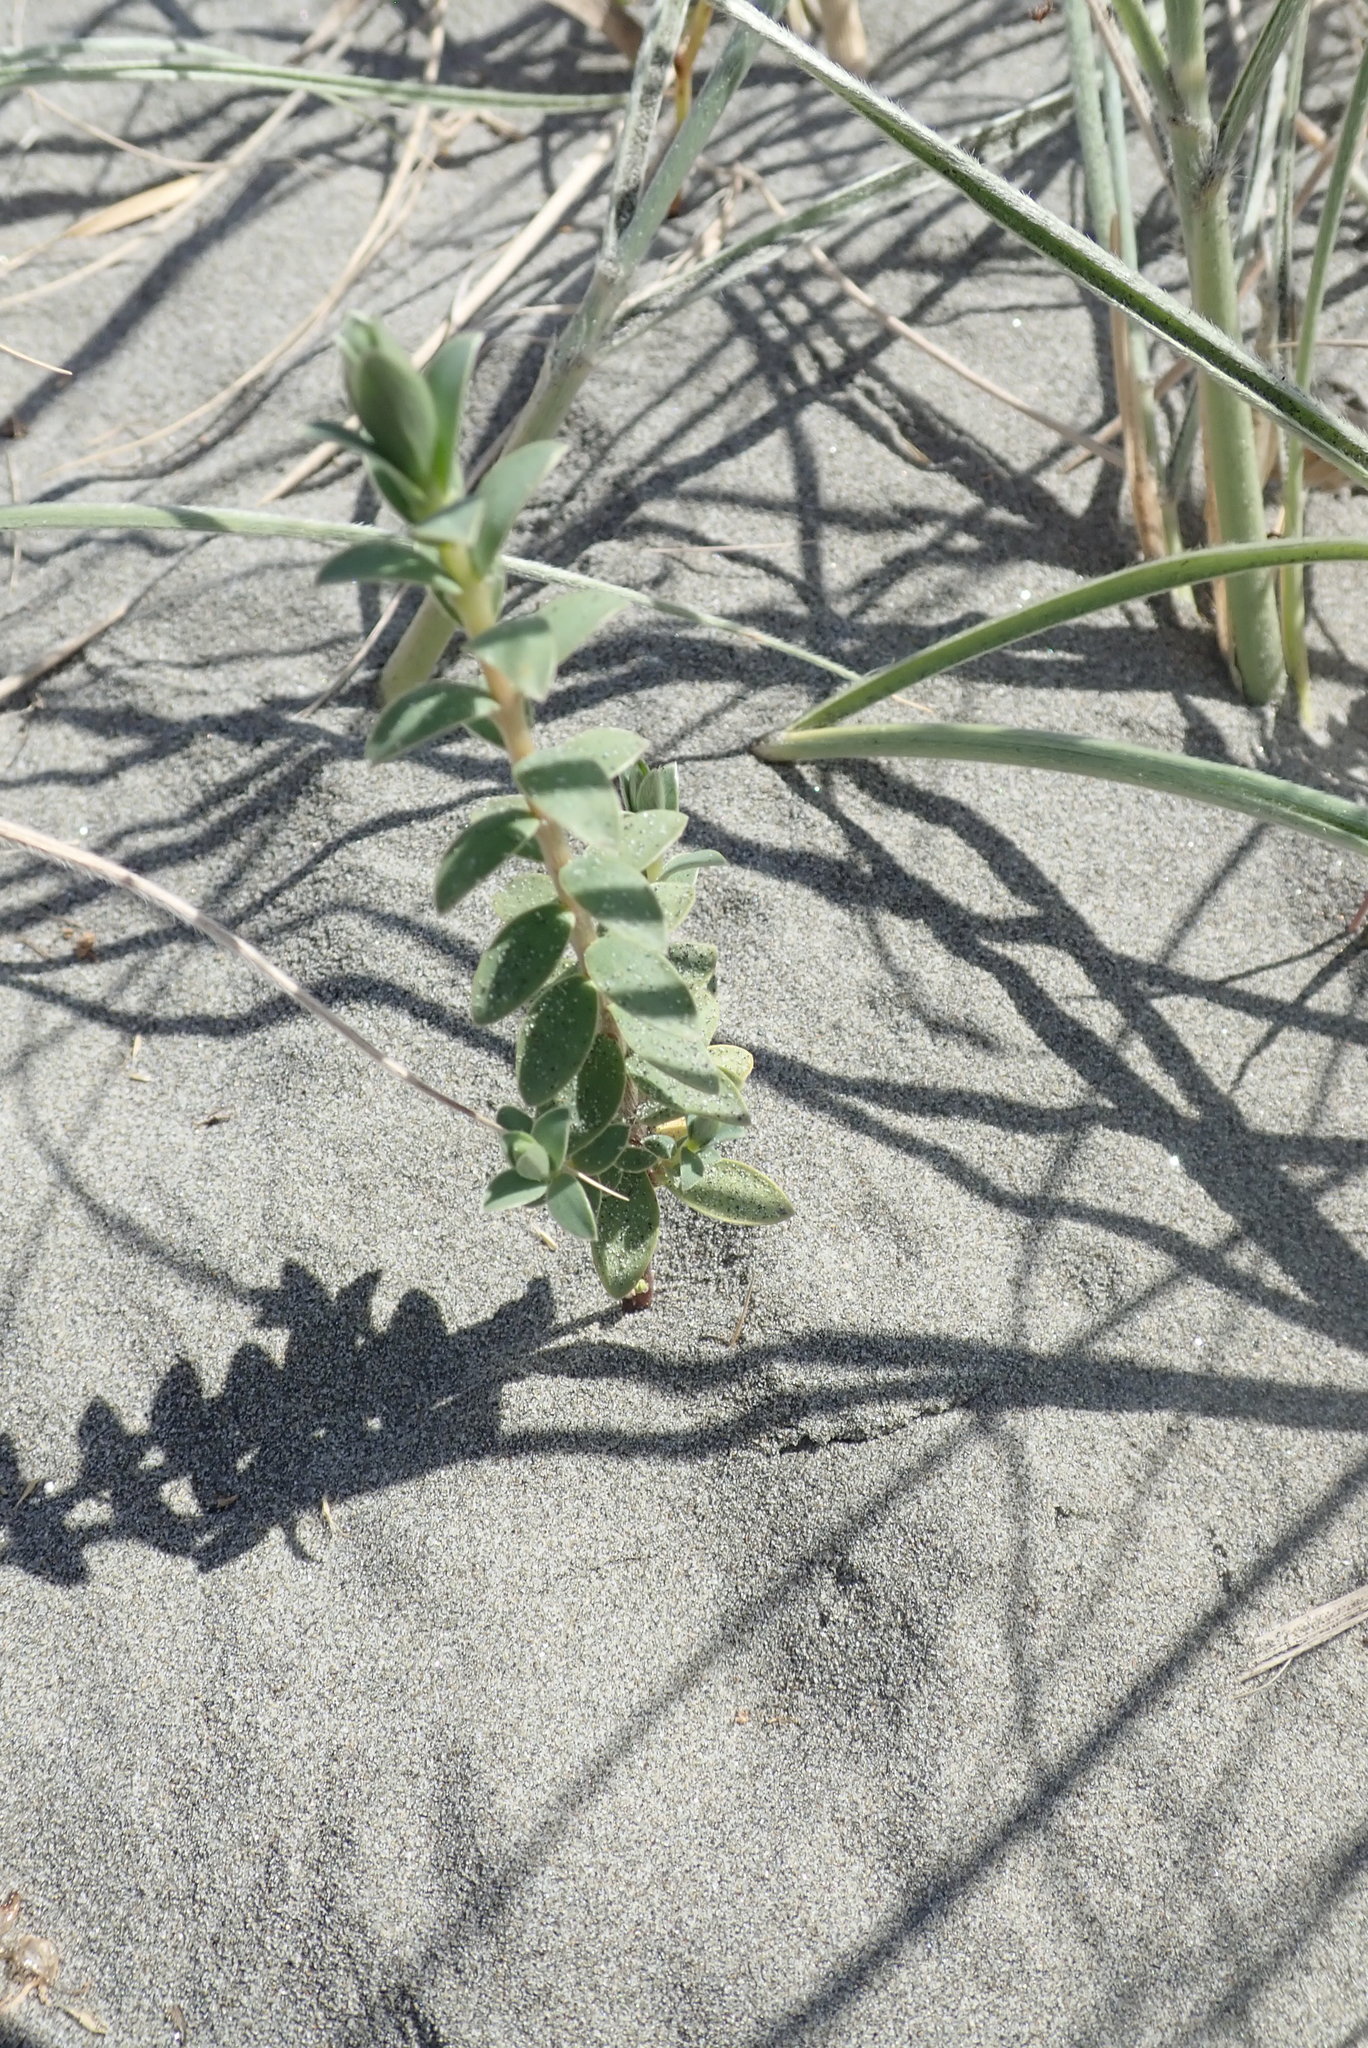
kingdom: Plantae
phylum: Tracheophyta
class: Magnoliopsida
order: Malvales
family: Thymelaeaceae
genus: Pimelea
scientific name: Pimelea villosa
